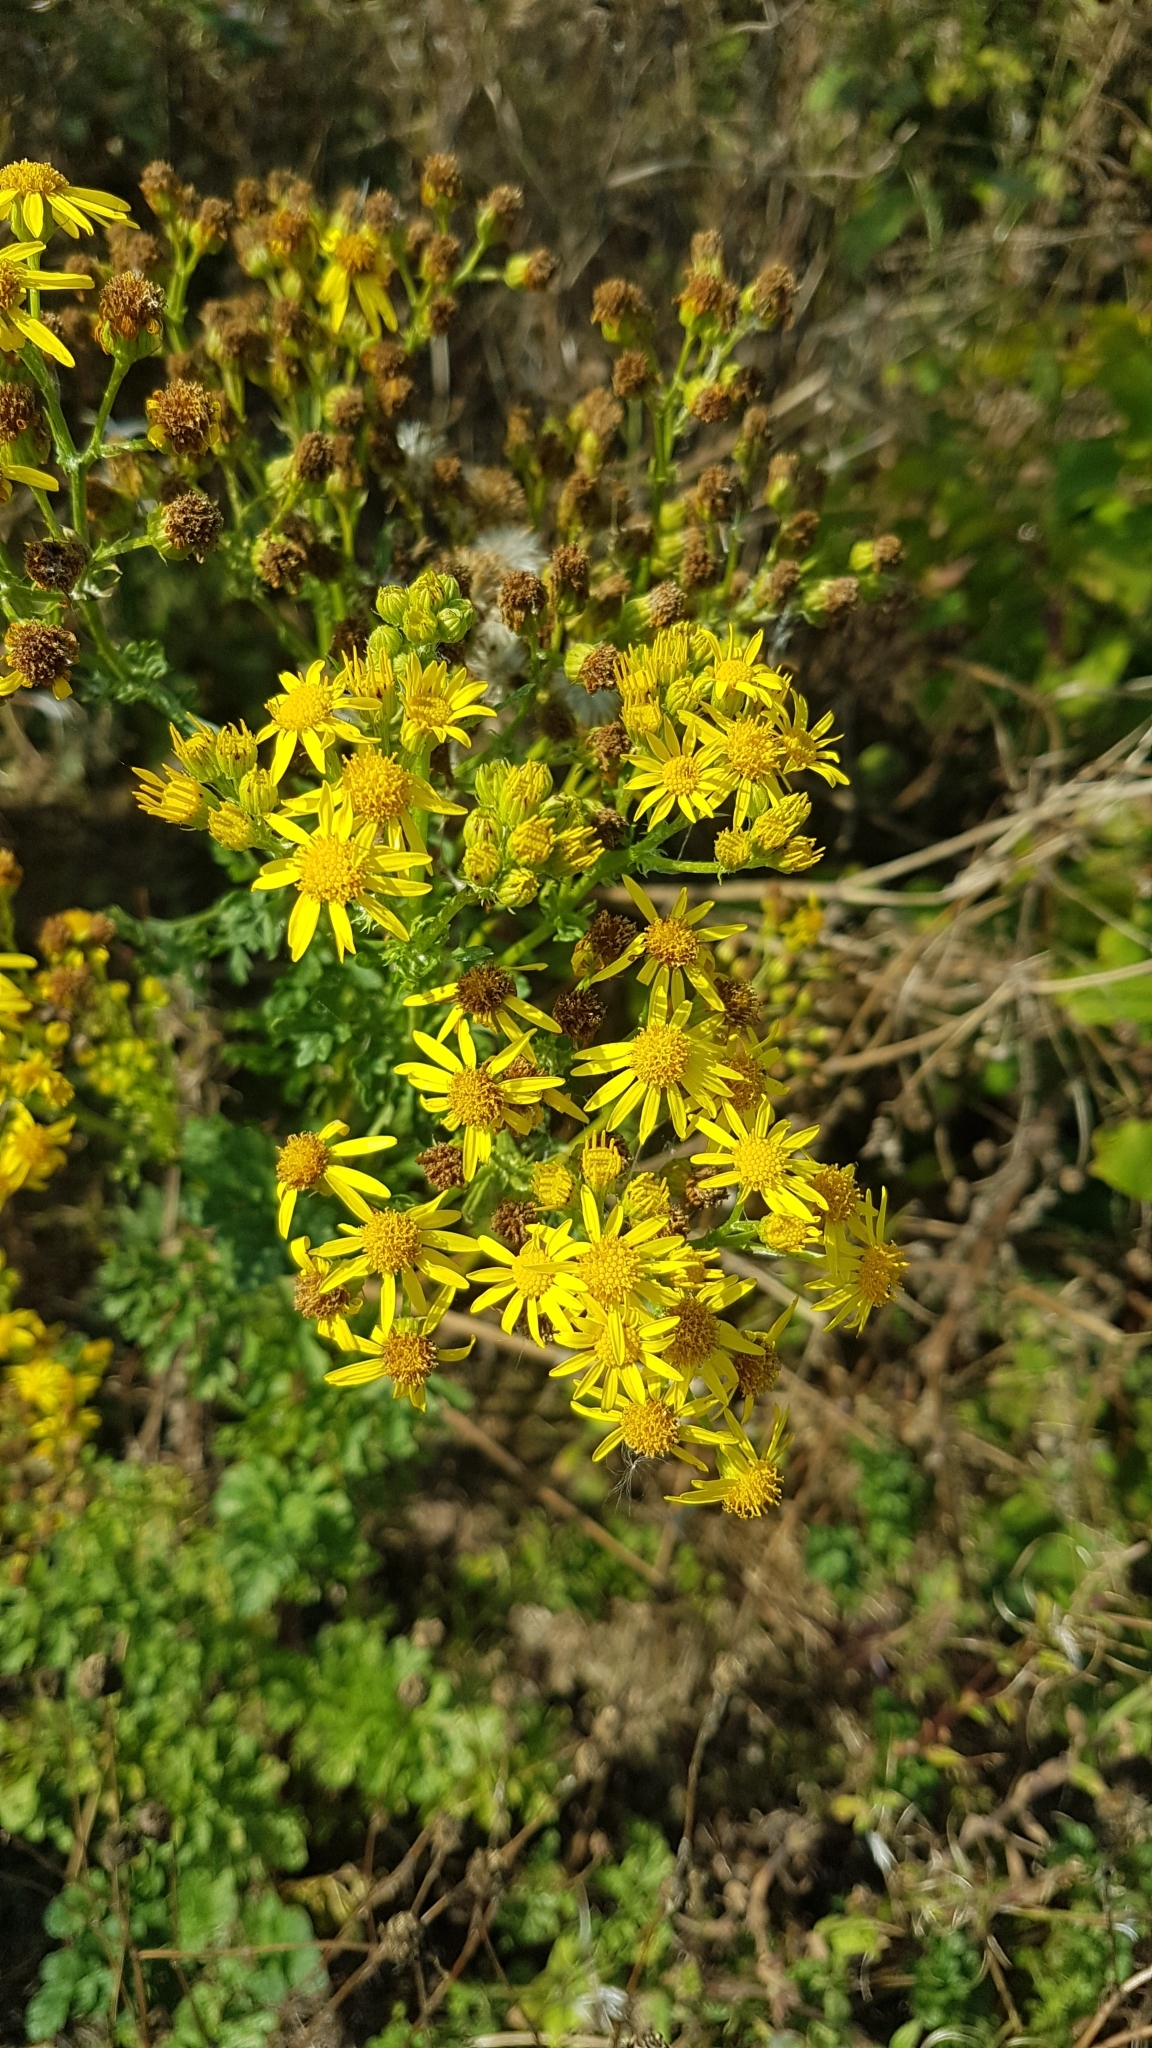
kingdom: Plantae
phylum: Tracheophyta
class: Magnoliopsida
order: Asterales
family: Asteraceae
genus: Jacobaea
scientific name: Jacobaea vulgaris
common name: Stinking willie
